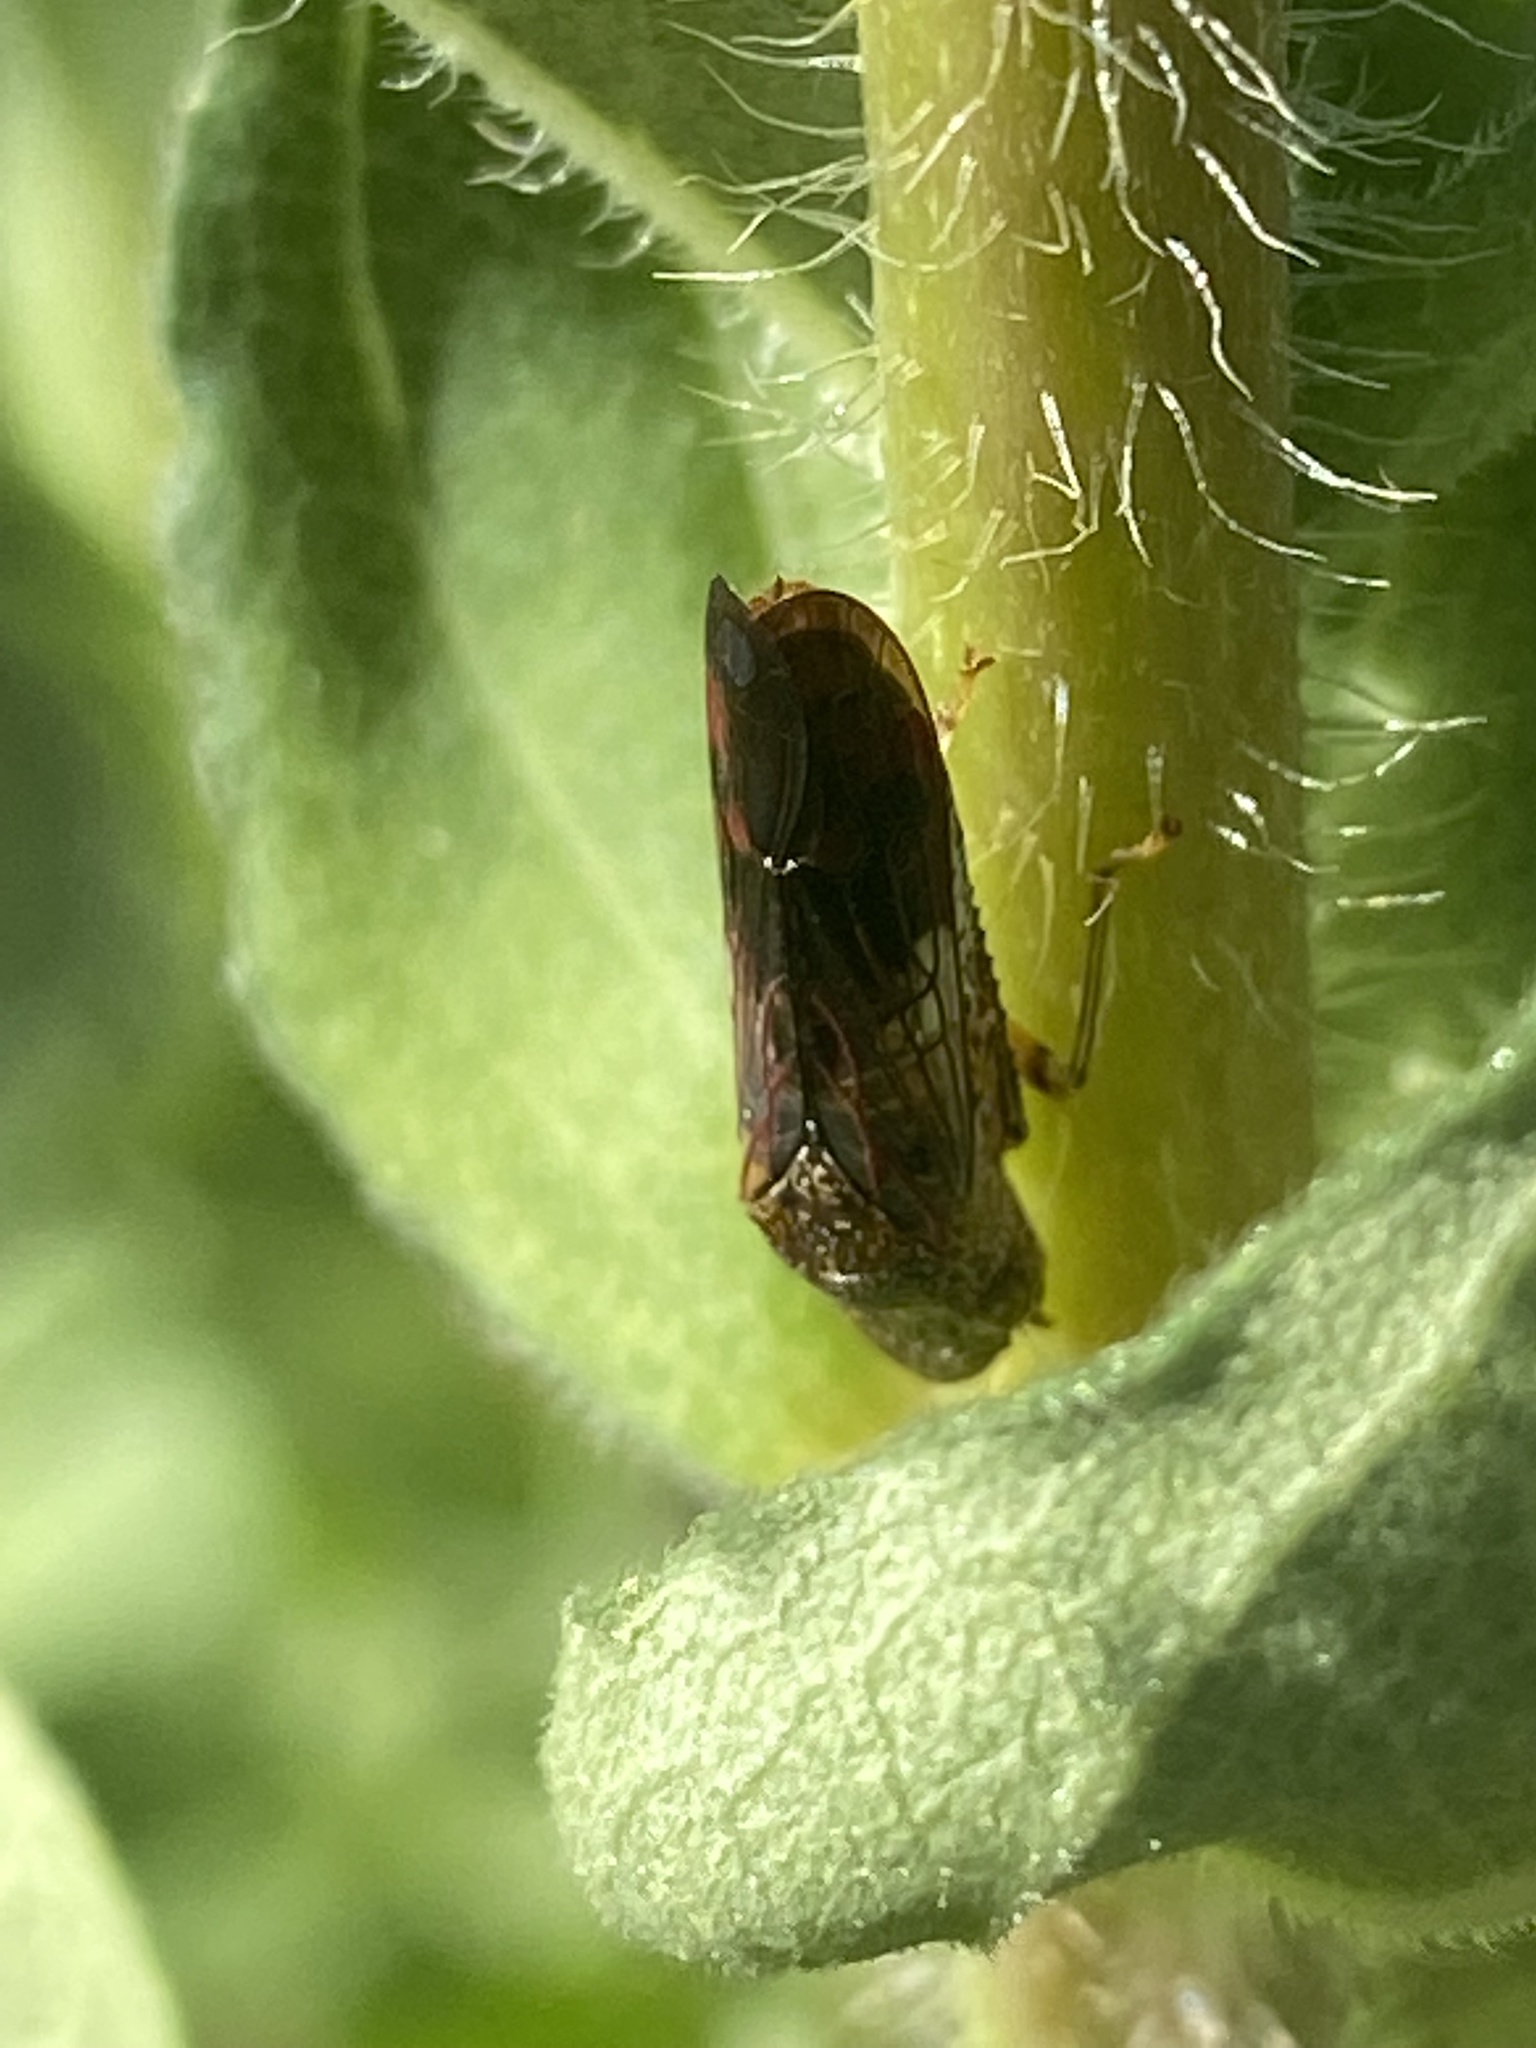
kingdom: Animalia
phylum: Arthropoda
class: Insecta
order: Hemiptera
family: Cicadellidae
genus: Homalodisca
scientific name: Homalodisca vitripennis
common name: Glassy-winged sharpshooter
